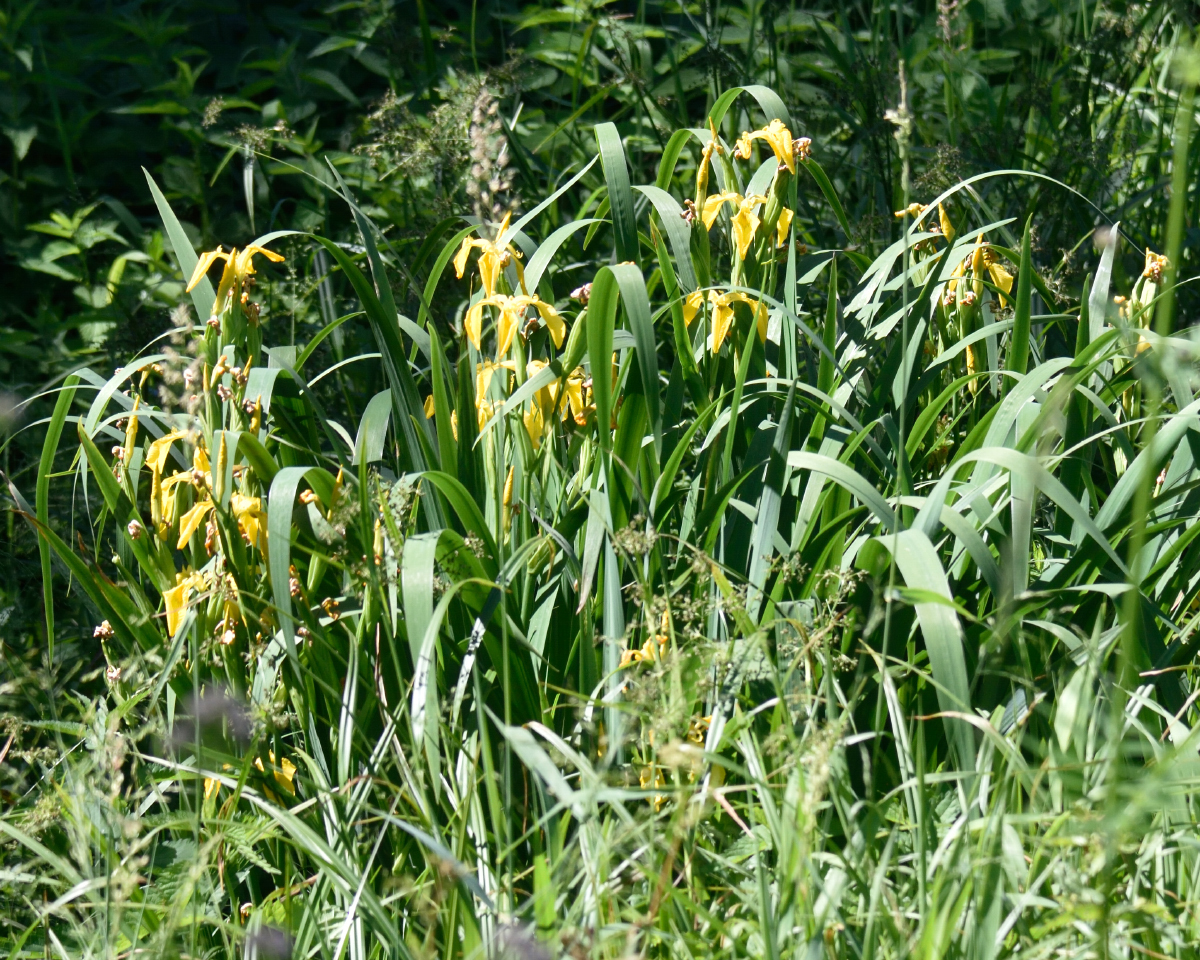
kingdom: Plantae
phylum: Tracheophyta
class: Liliopsida
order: Asparagales
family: Iridaceae
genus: Iris
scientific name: Iris pseudacorus
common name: Yellow flag
